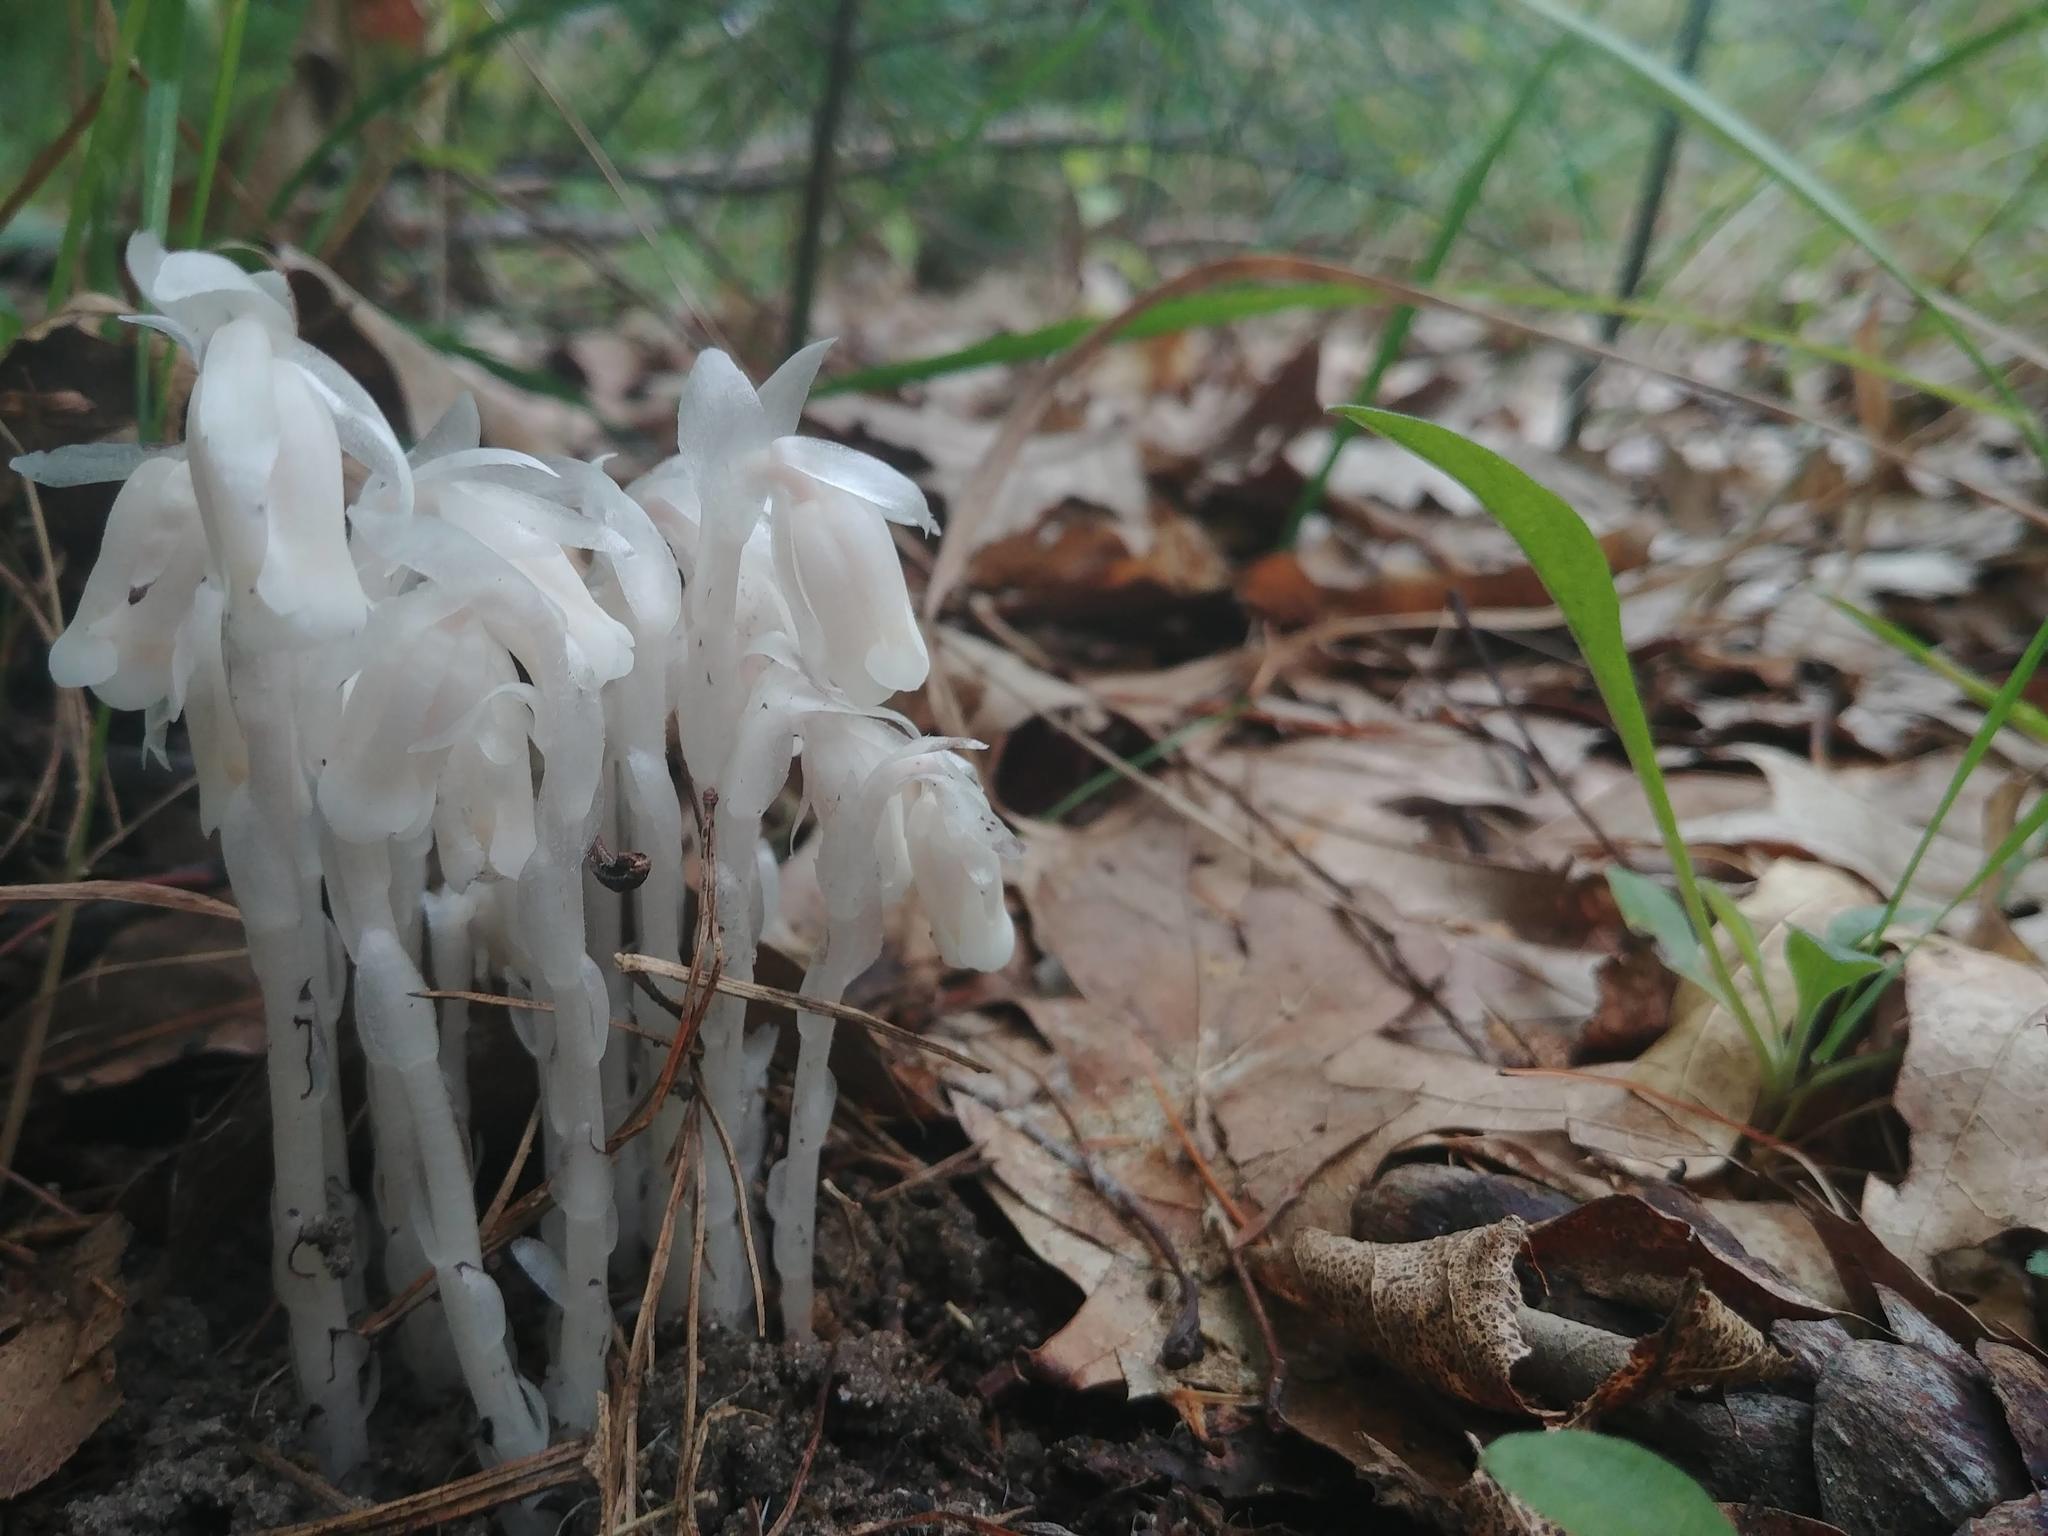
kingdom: Plantae
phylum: Tracheophyta
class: Magnoliopsida
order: Ericales
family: Ericaceae
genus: Monotropa
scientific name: Monotropa uniflora
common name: Convulsion root
